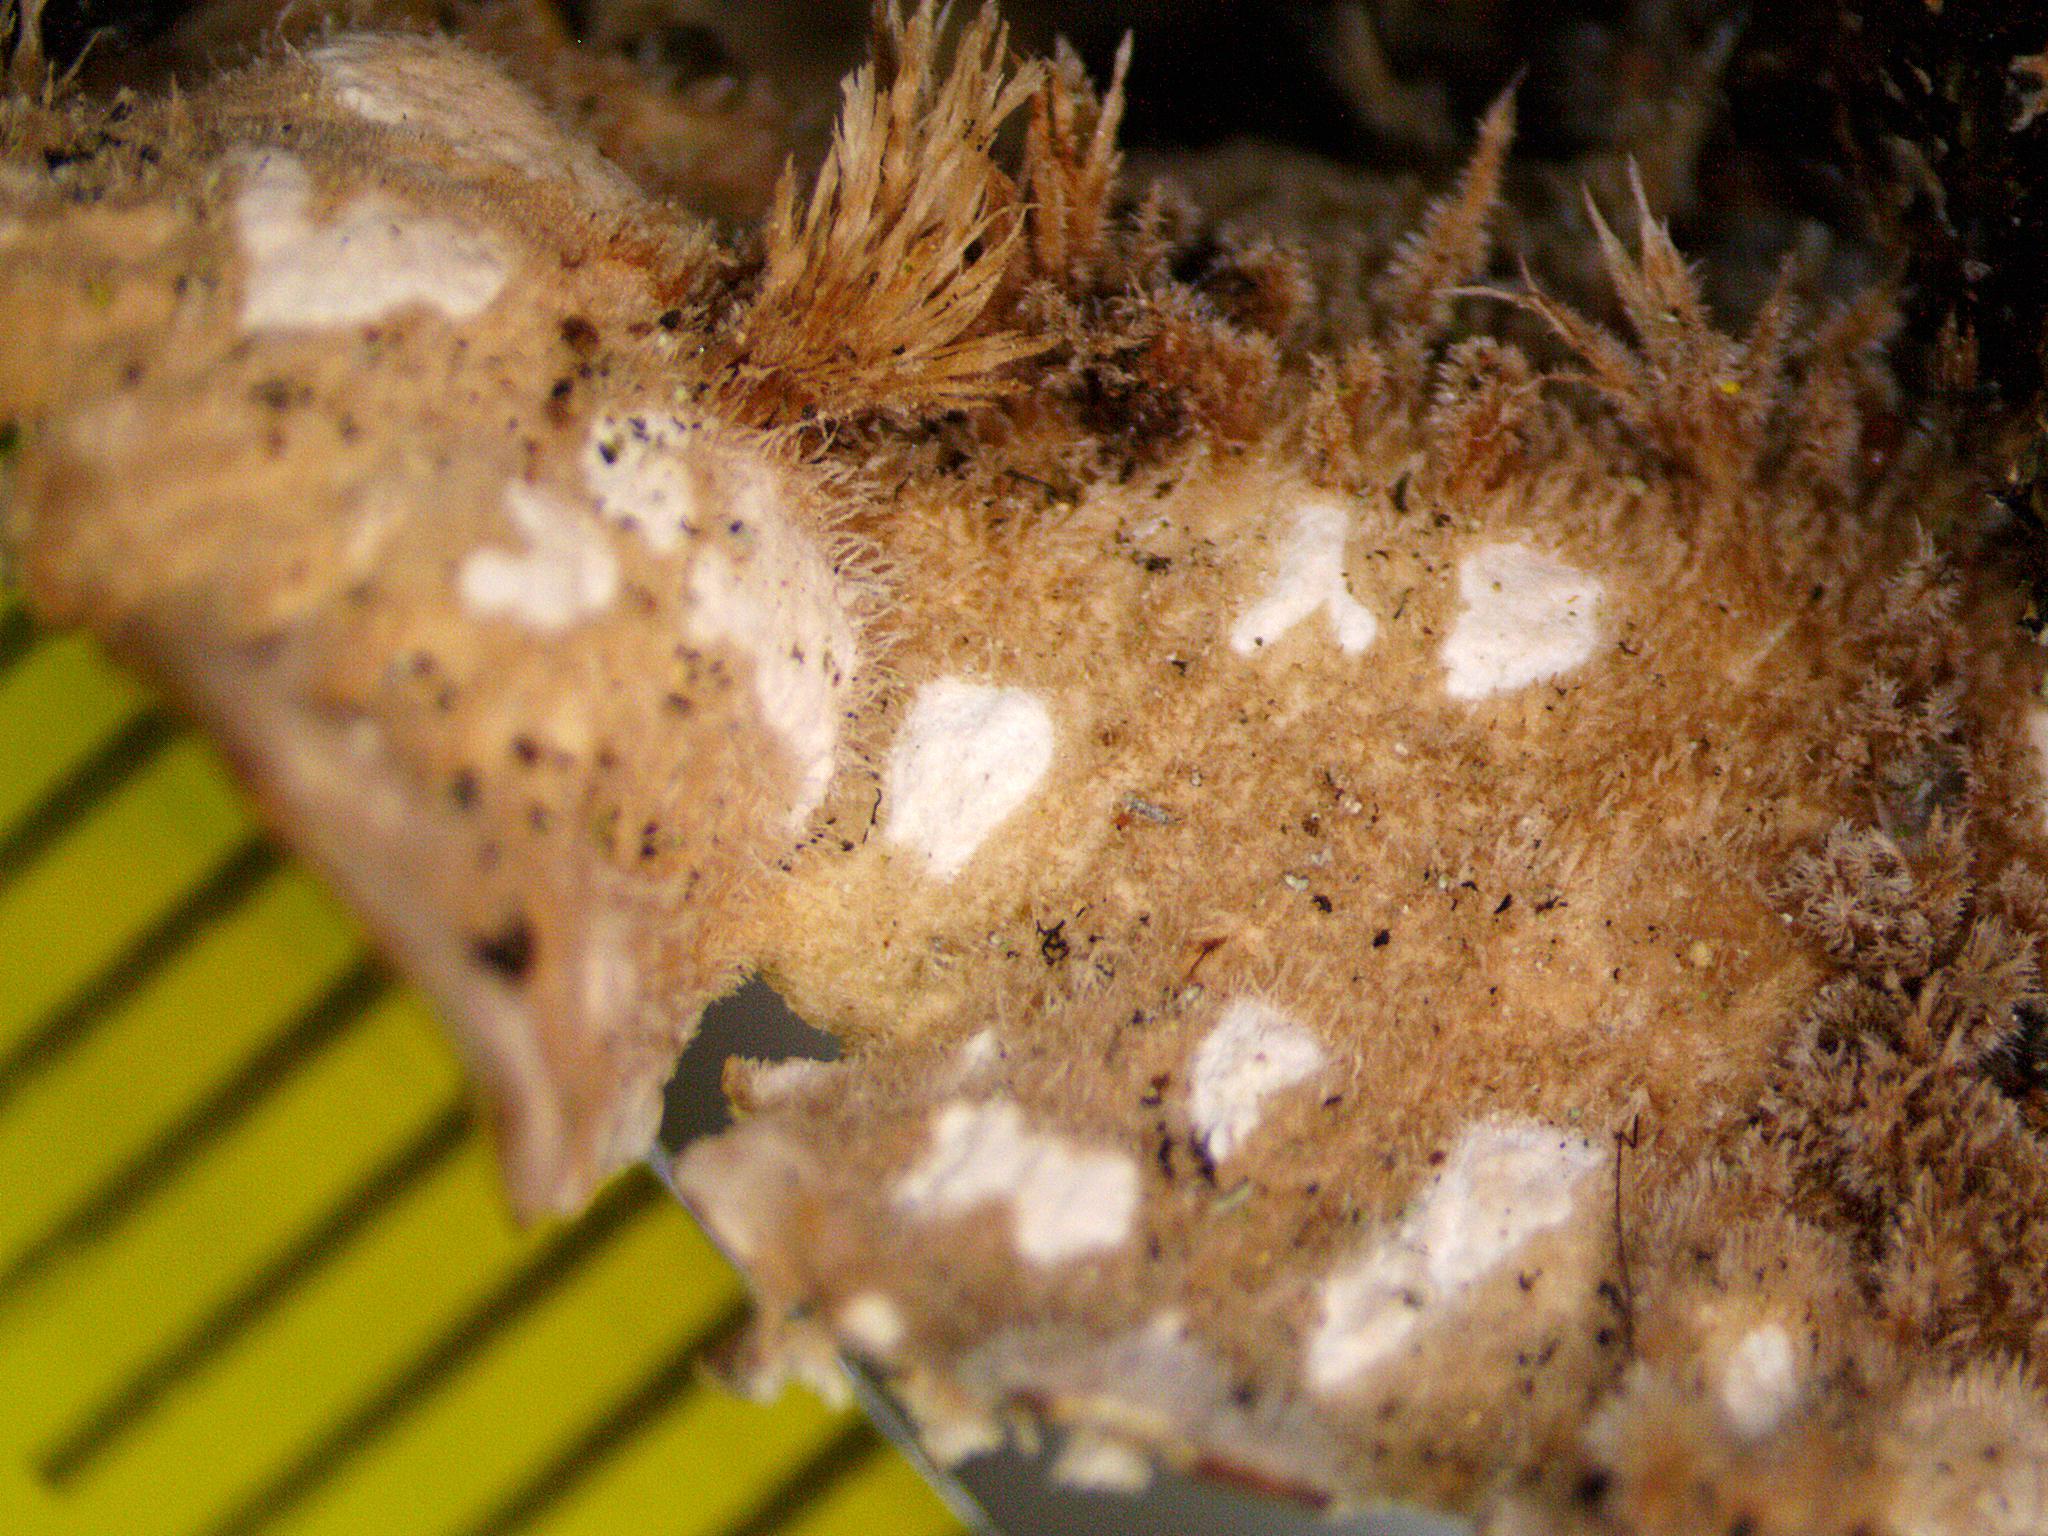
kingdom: Fungi
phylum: Ascomycota
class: Lecanoromycetes
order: Peltigerales
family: Lobariaceae
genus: Lobarina
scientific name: Lobarina scrobiculata
